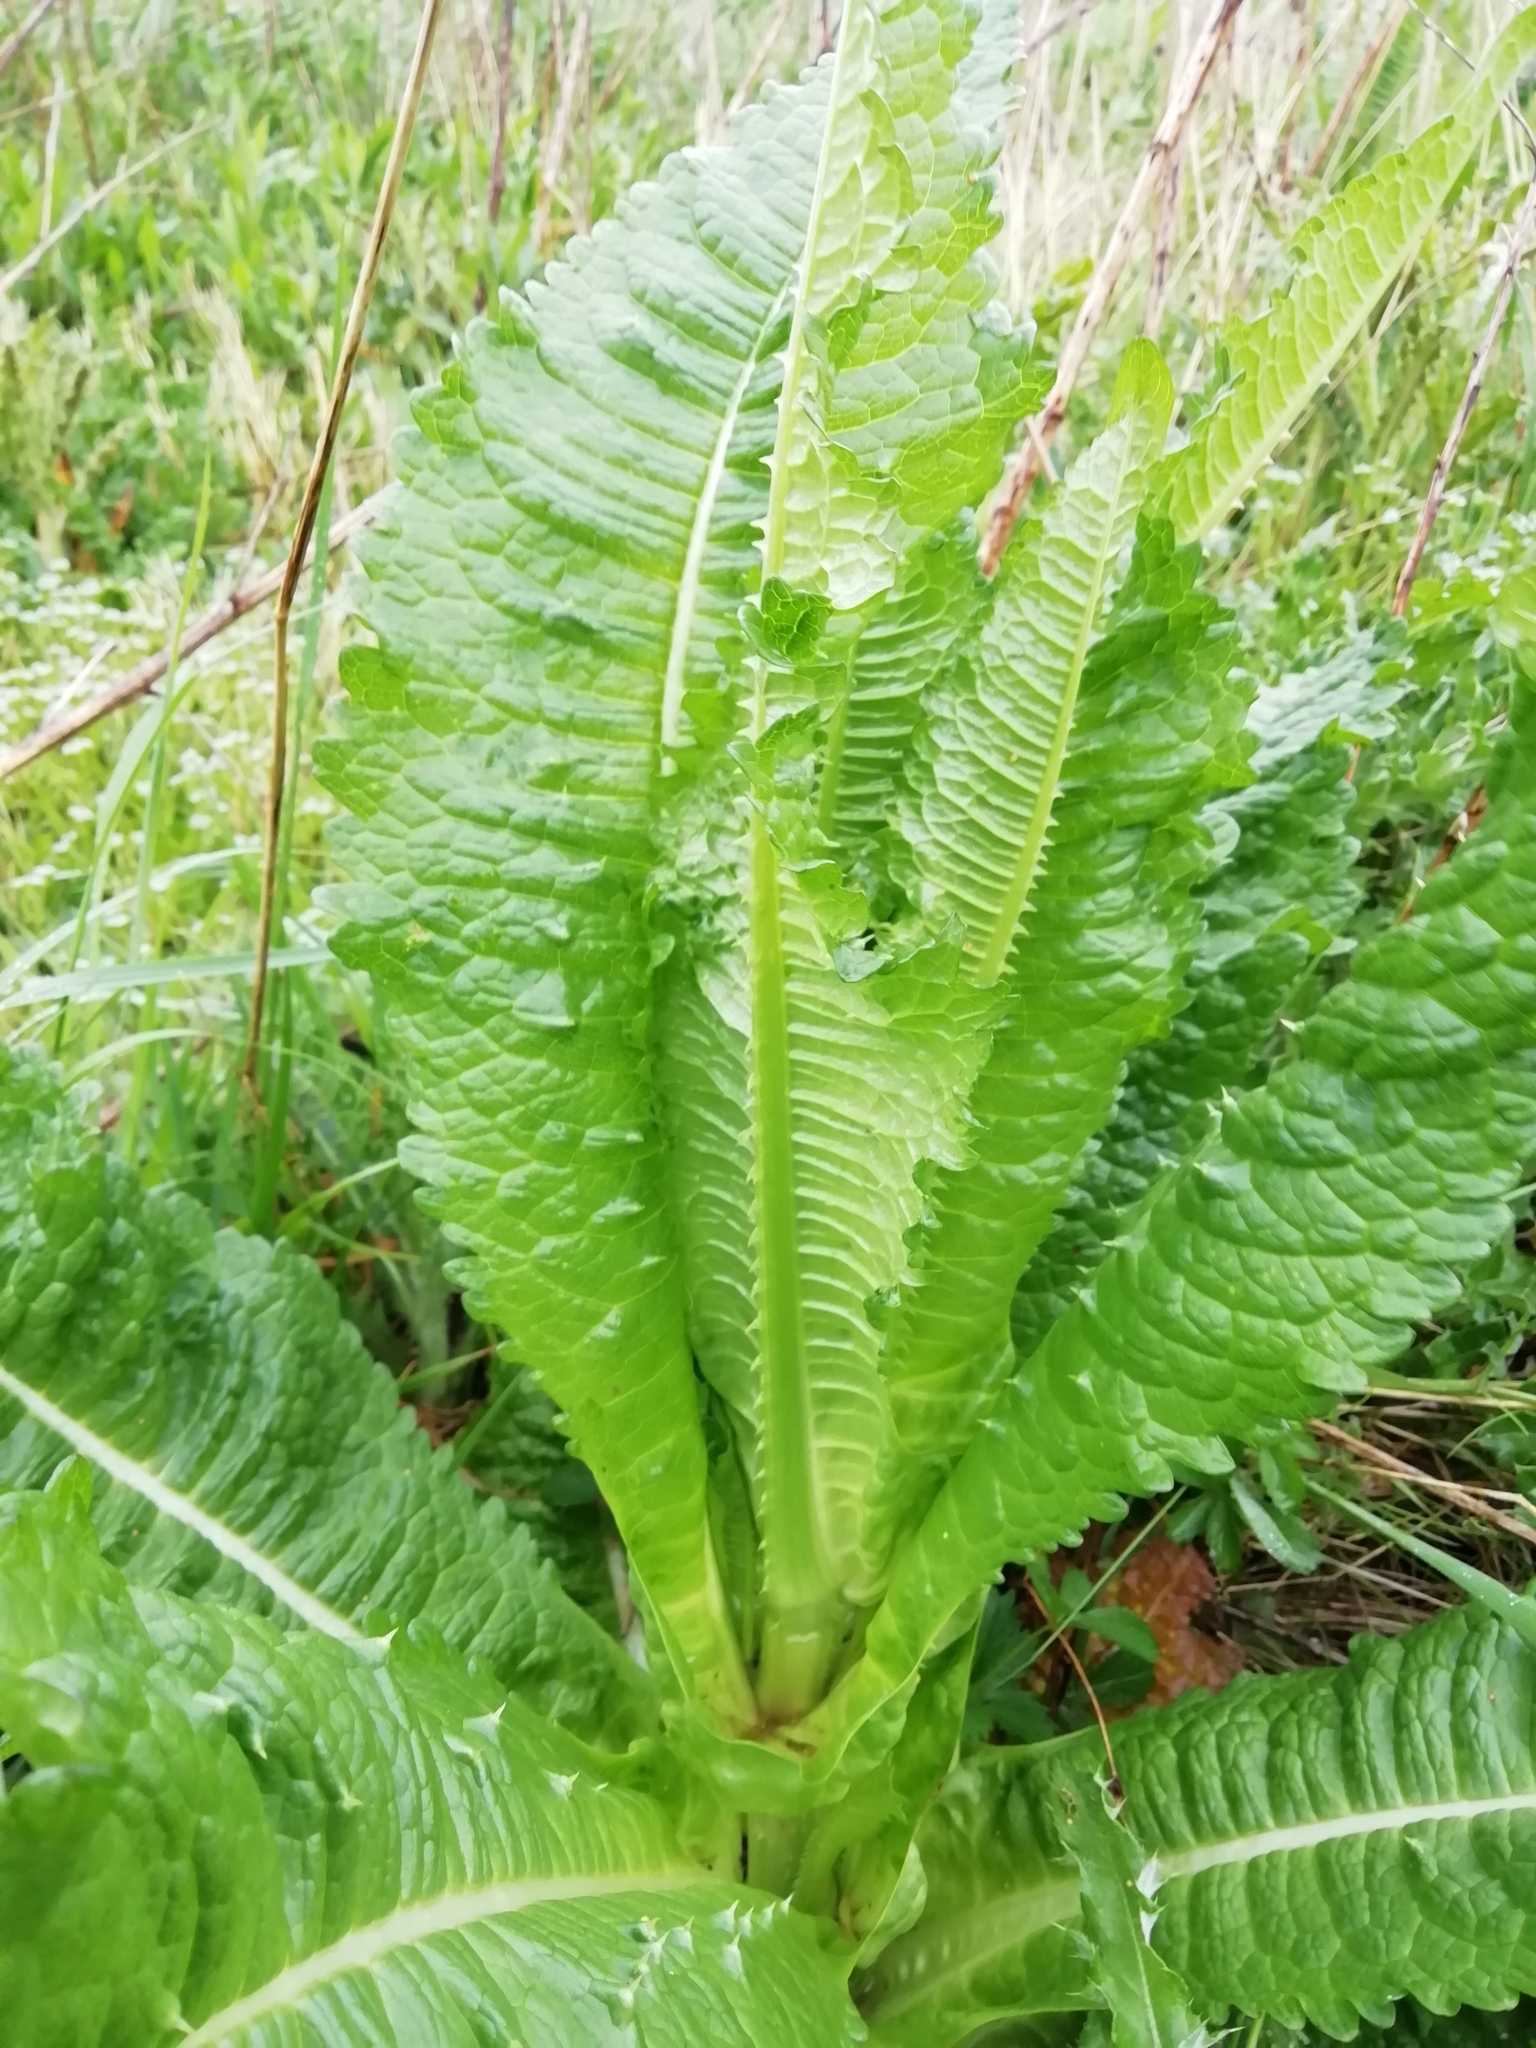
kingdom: Plantae
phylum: Tracheophyta
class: Magnoliopsida
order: Dipsacales
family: Caprifoliaceae
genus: Dipsacus
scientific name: Dipsacus fullonum
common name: Teasel
